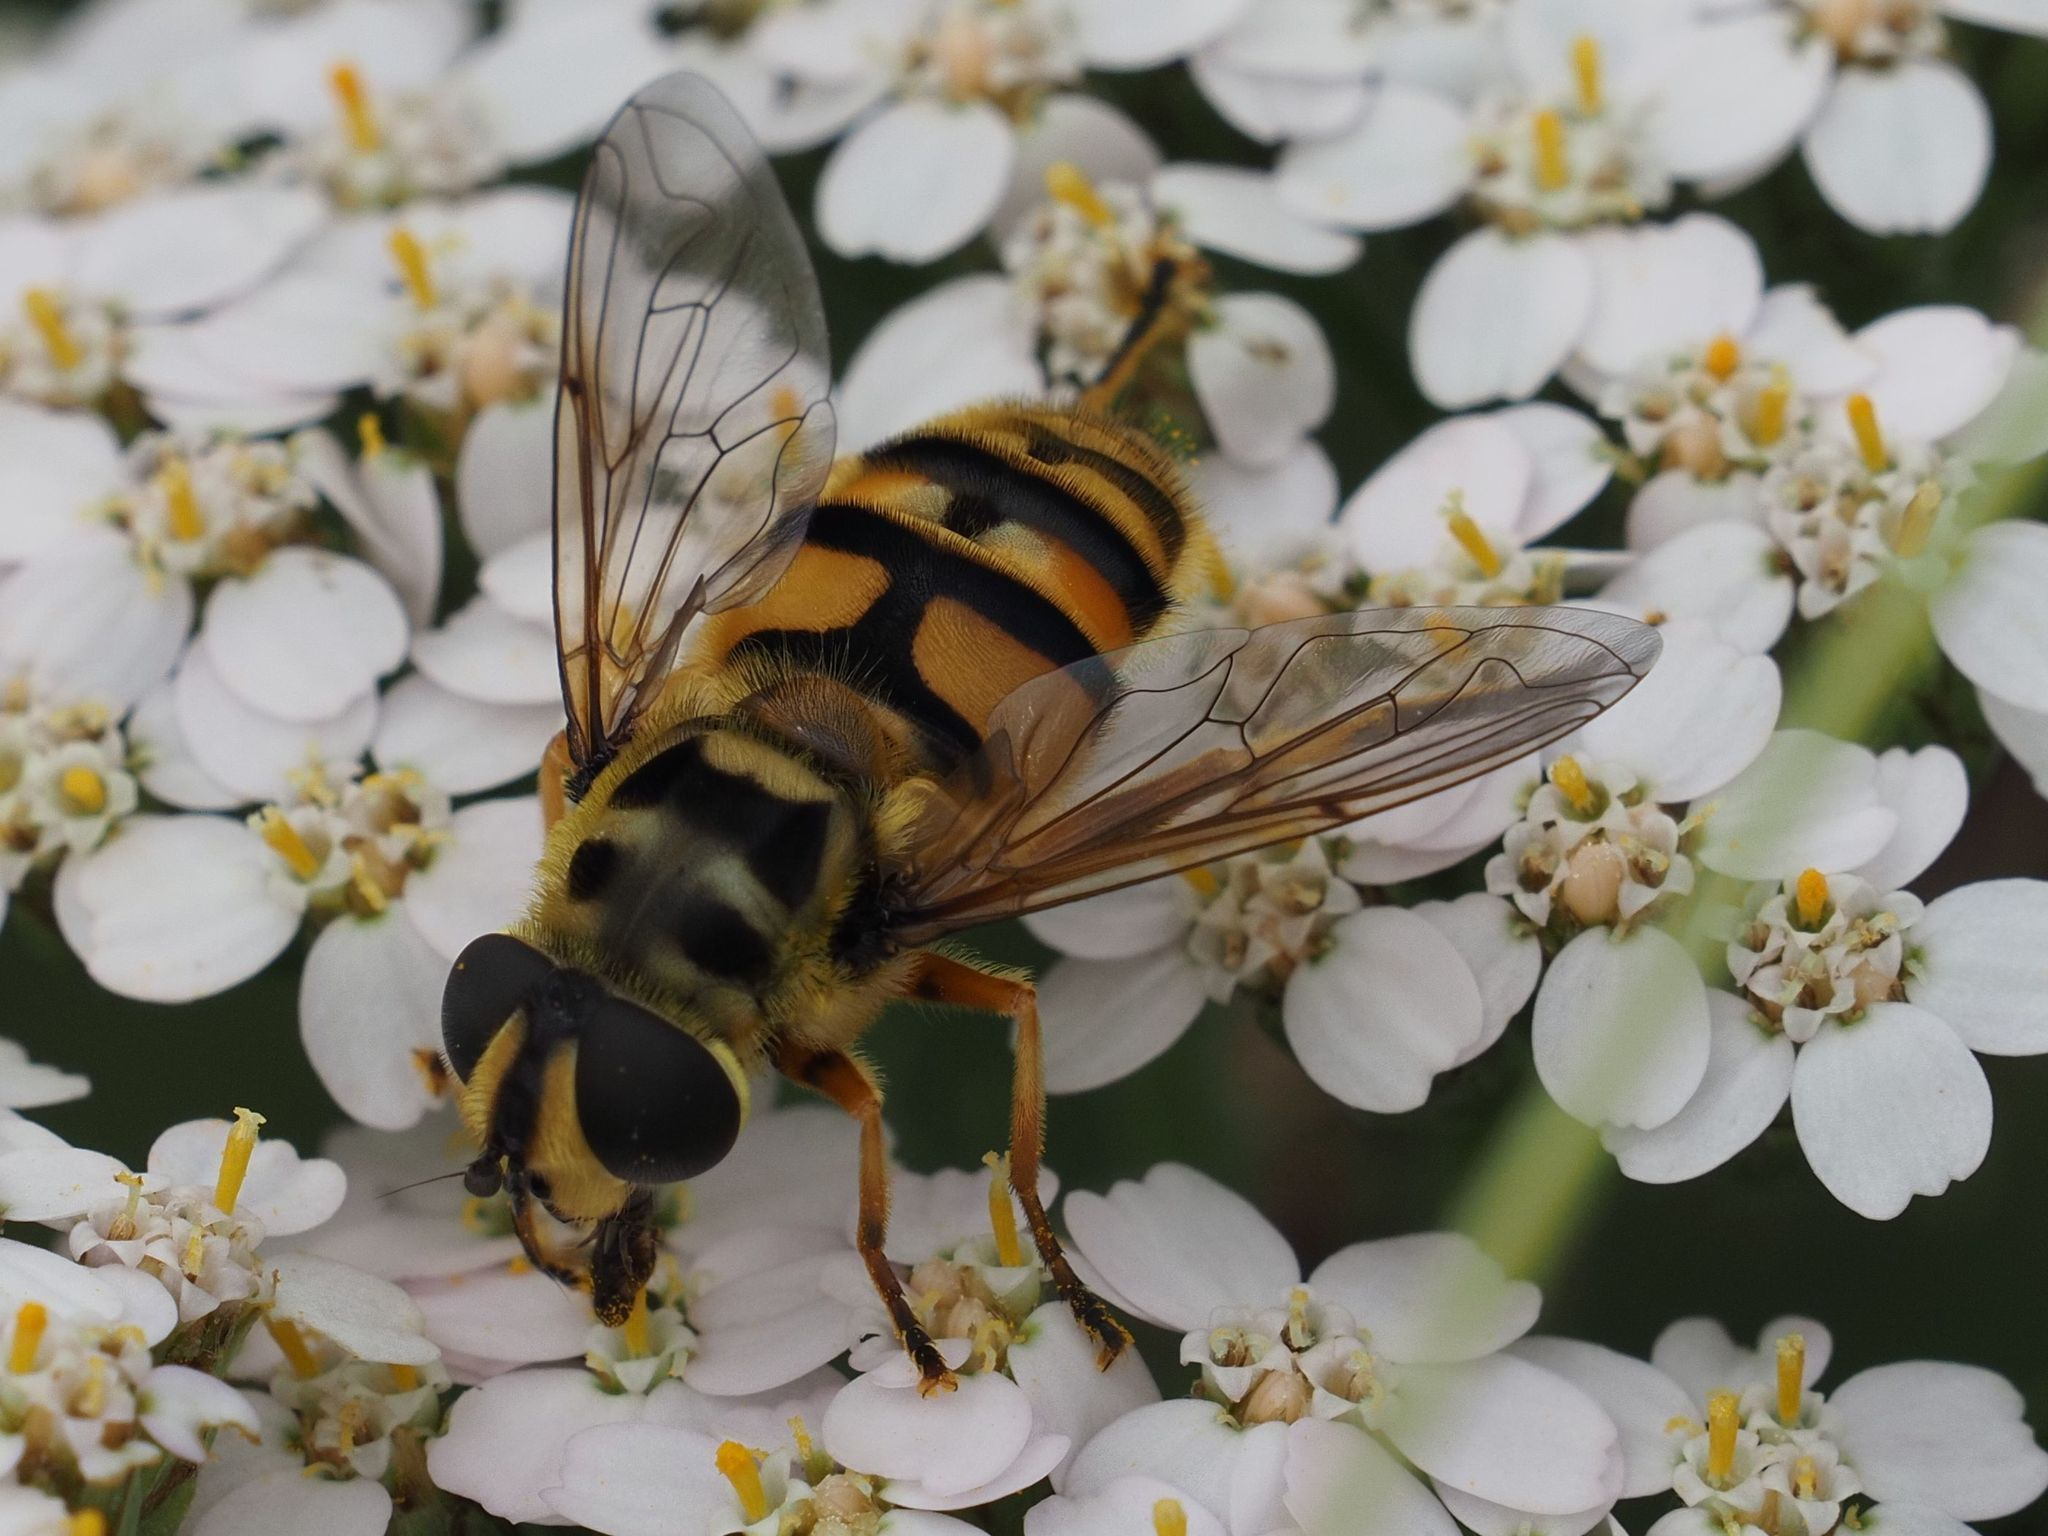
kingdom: Animalia
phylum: Arthropoda
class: Insecta
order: Diptera
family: Syrphidae
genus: Myathropa
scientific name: Myathropa florea
